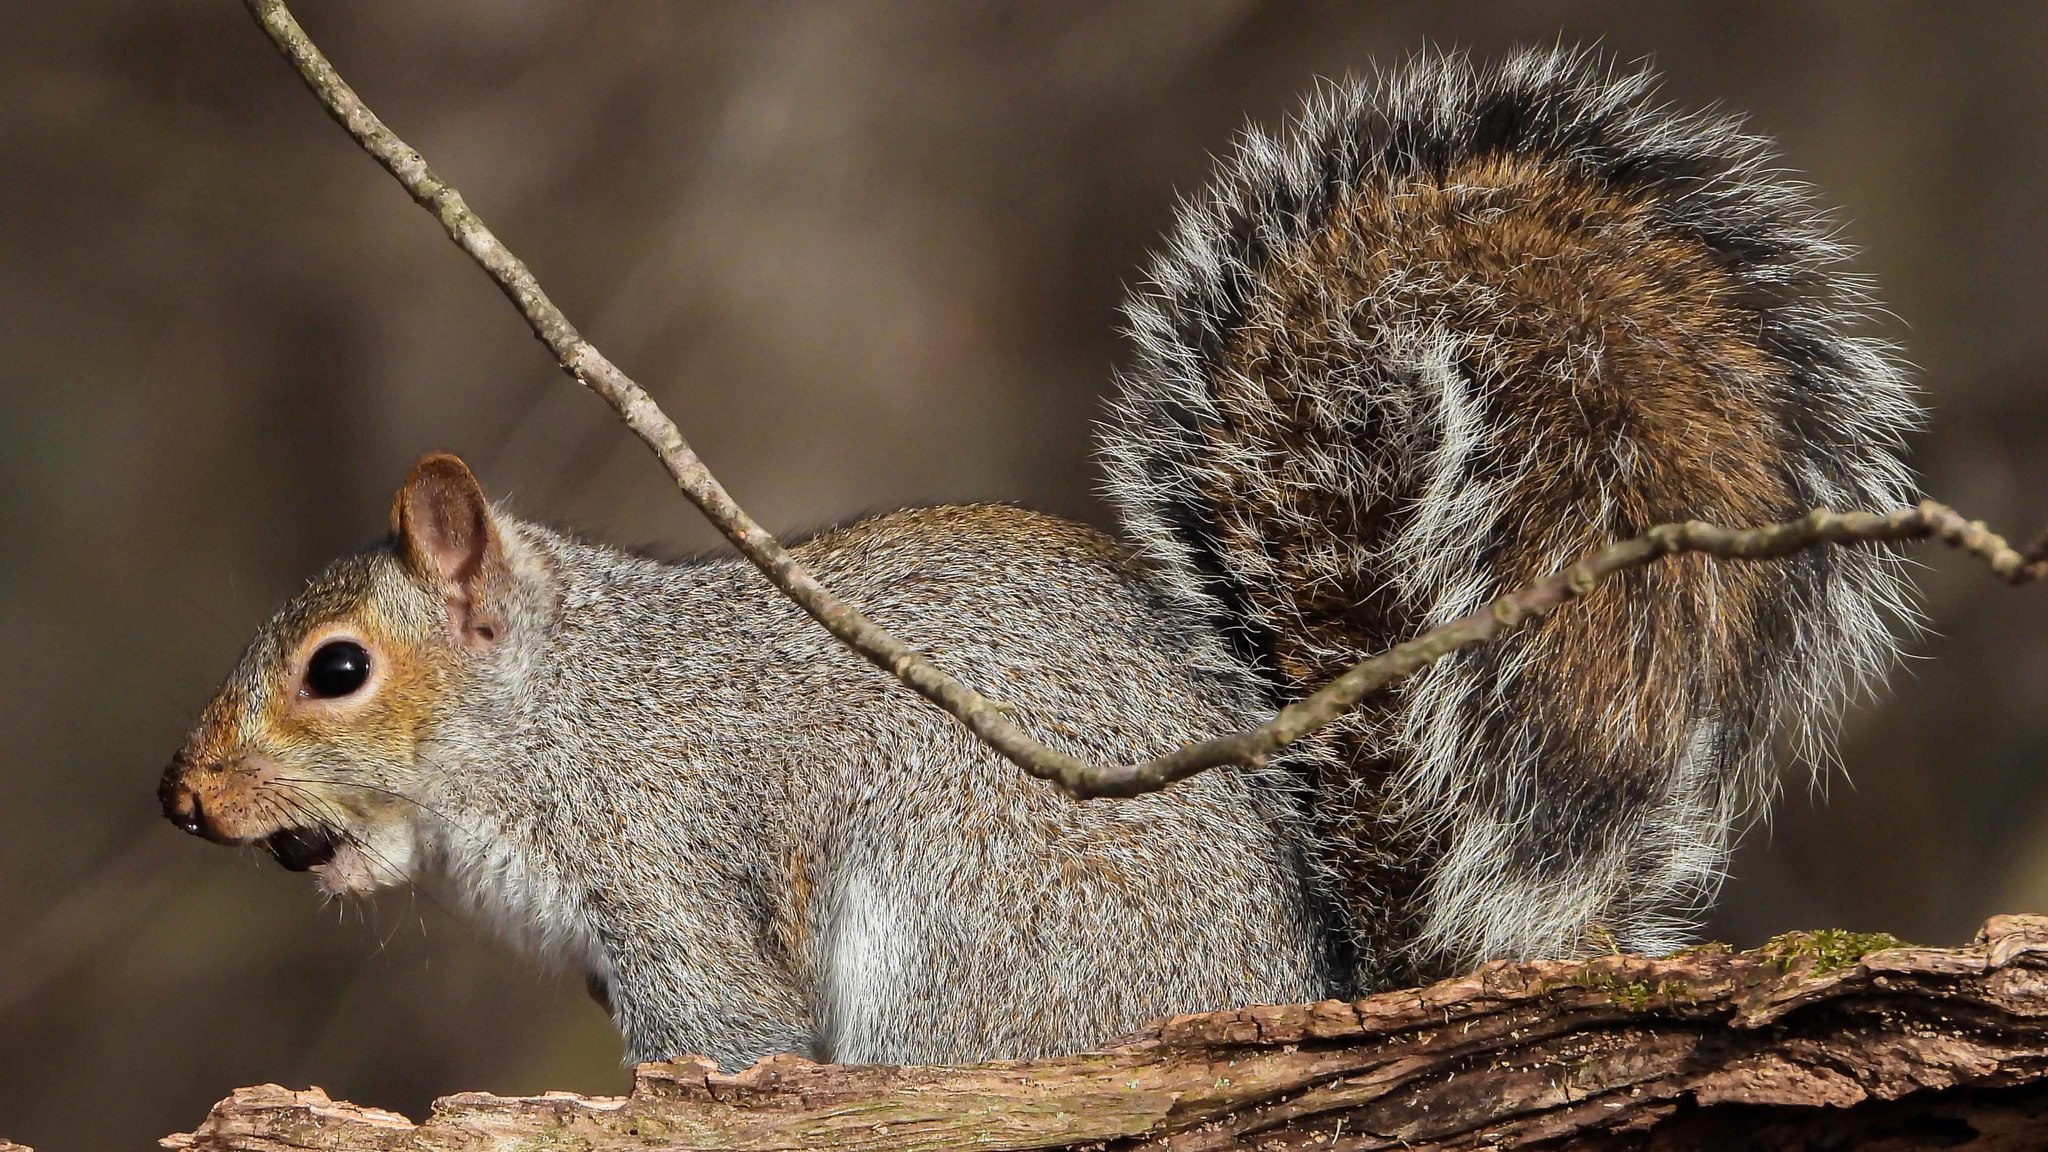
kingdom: Animalia
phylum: Chordata
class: Mammalia
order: Rodentia
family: Sciuridae
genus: Sciurus
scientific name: Sciurus carolinensis
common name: Eastern gray squirrel
